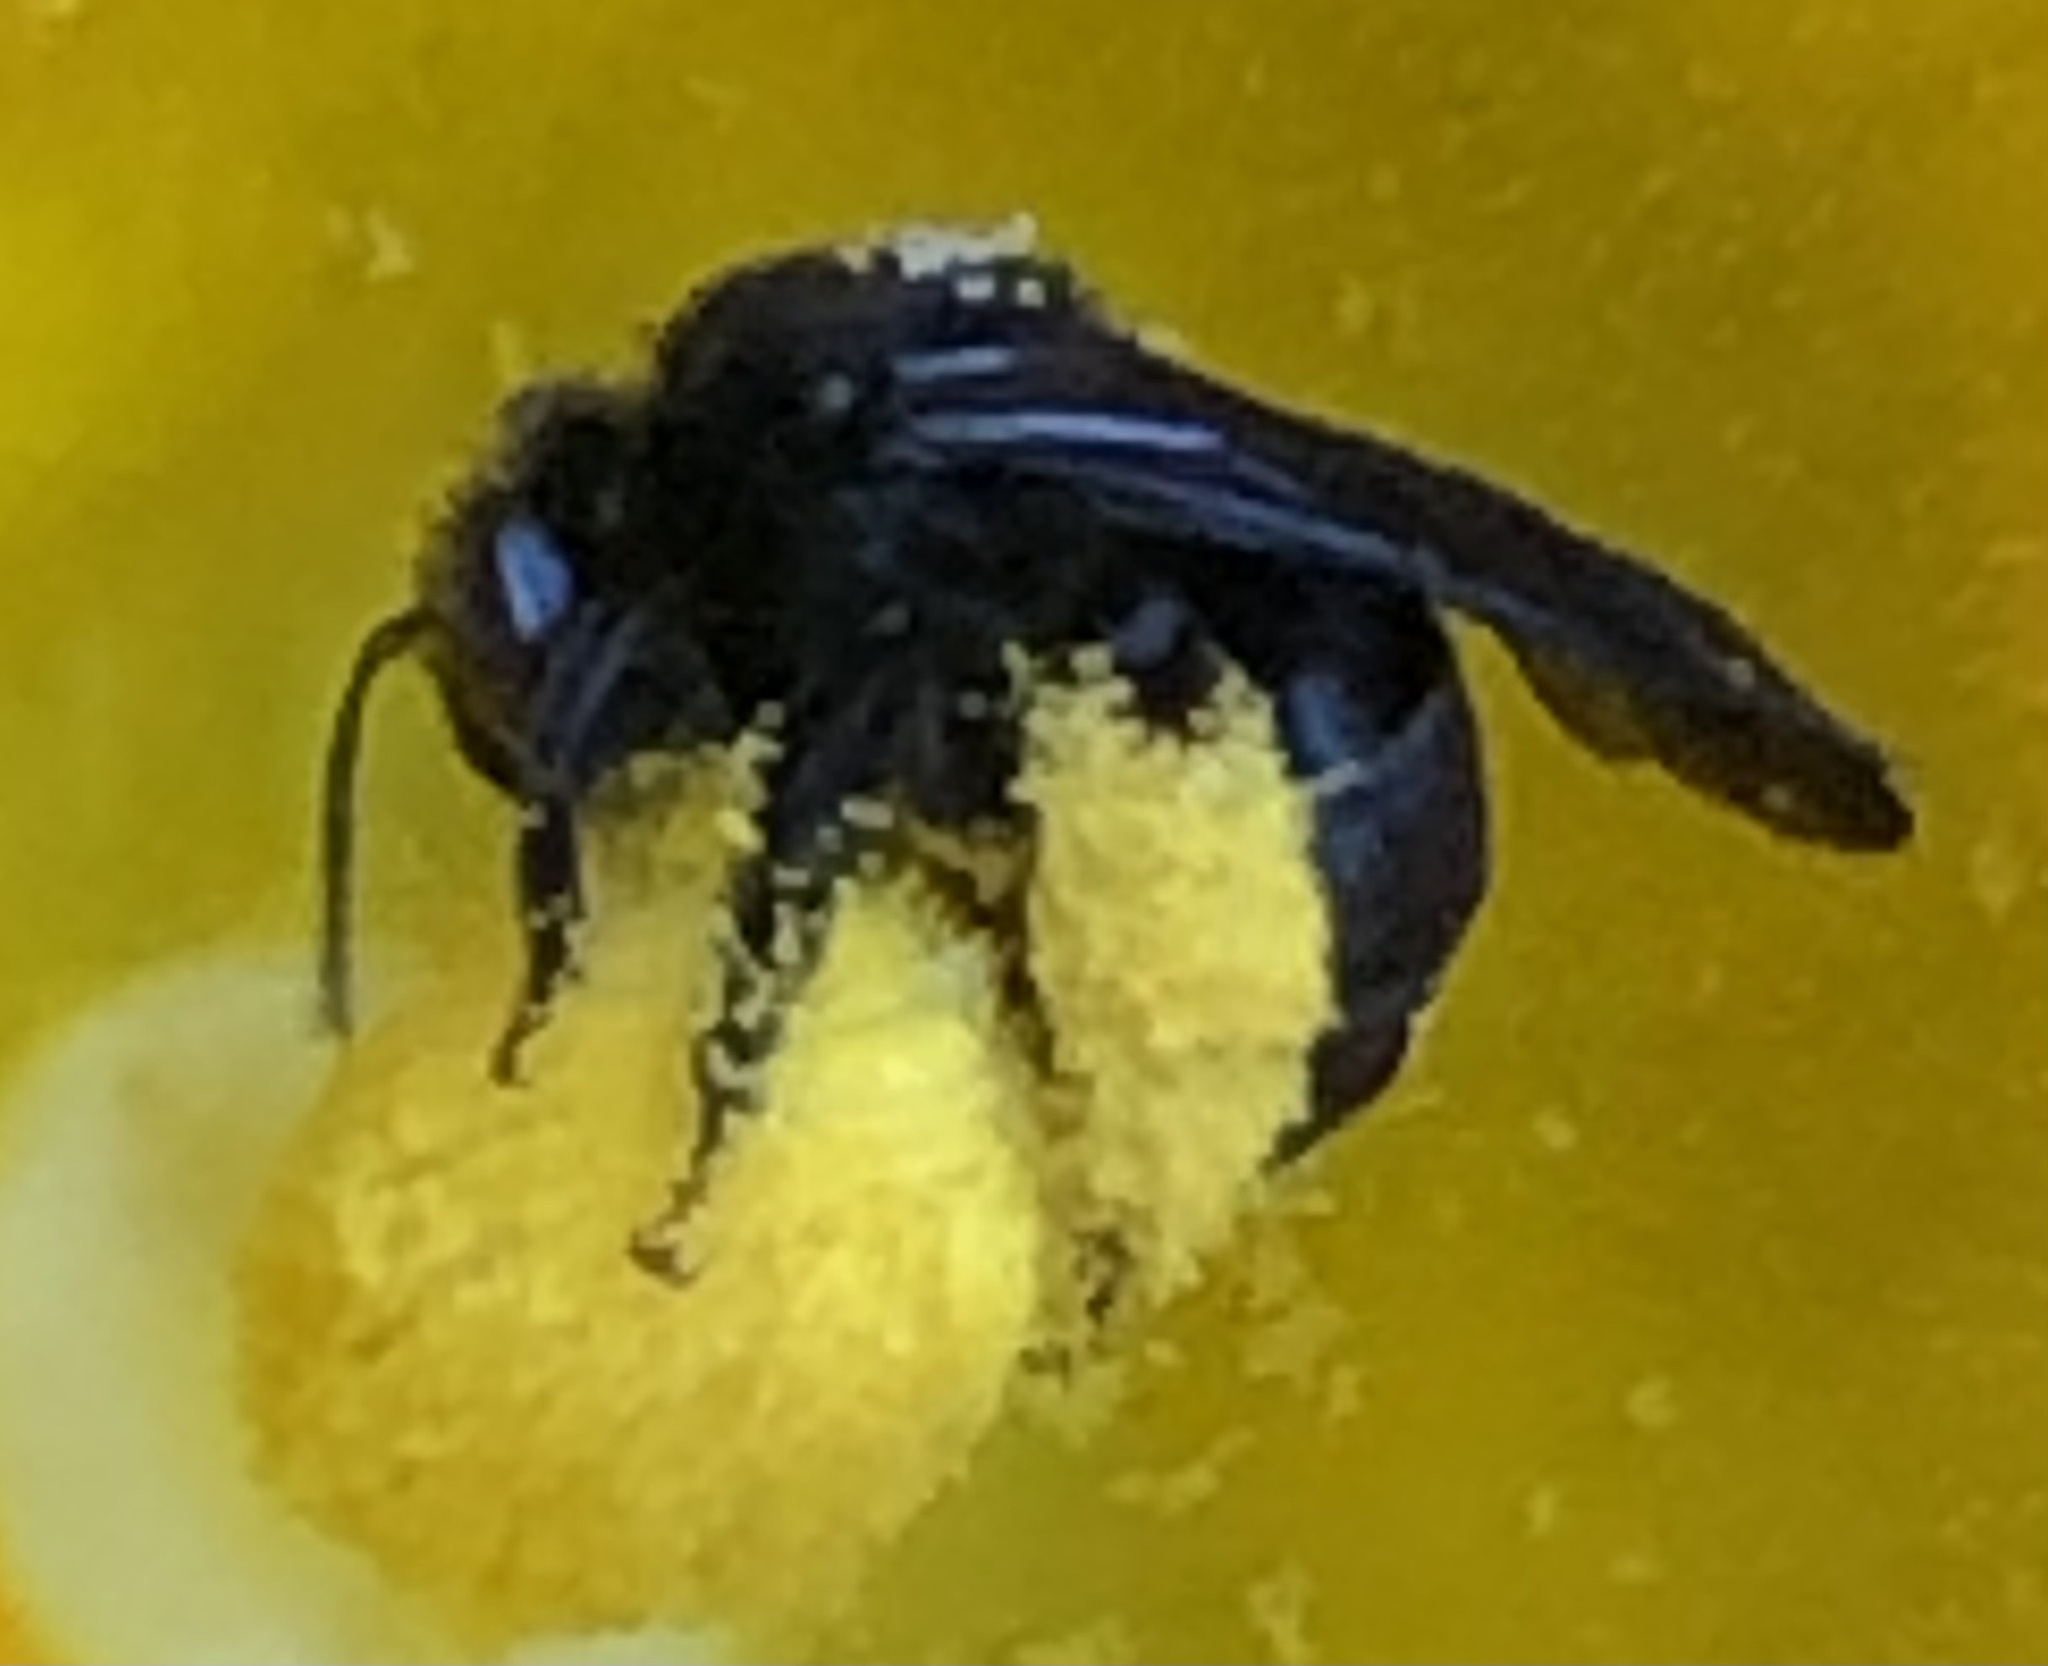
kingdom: Animalia
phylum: Arthropoda
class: Insecta
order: Hymenoptera
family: Apidae
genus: Melissodes
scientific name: Melissodes bimaculatus
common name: Two-spotted long-horned bee
